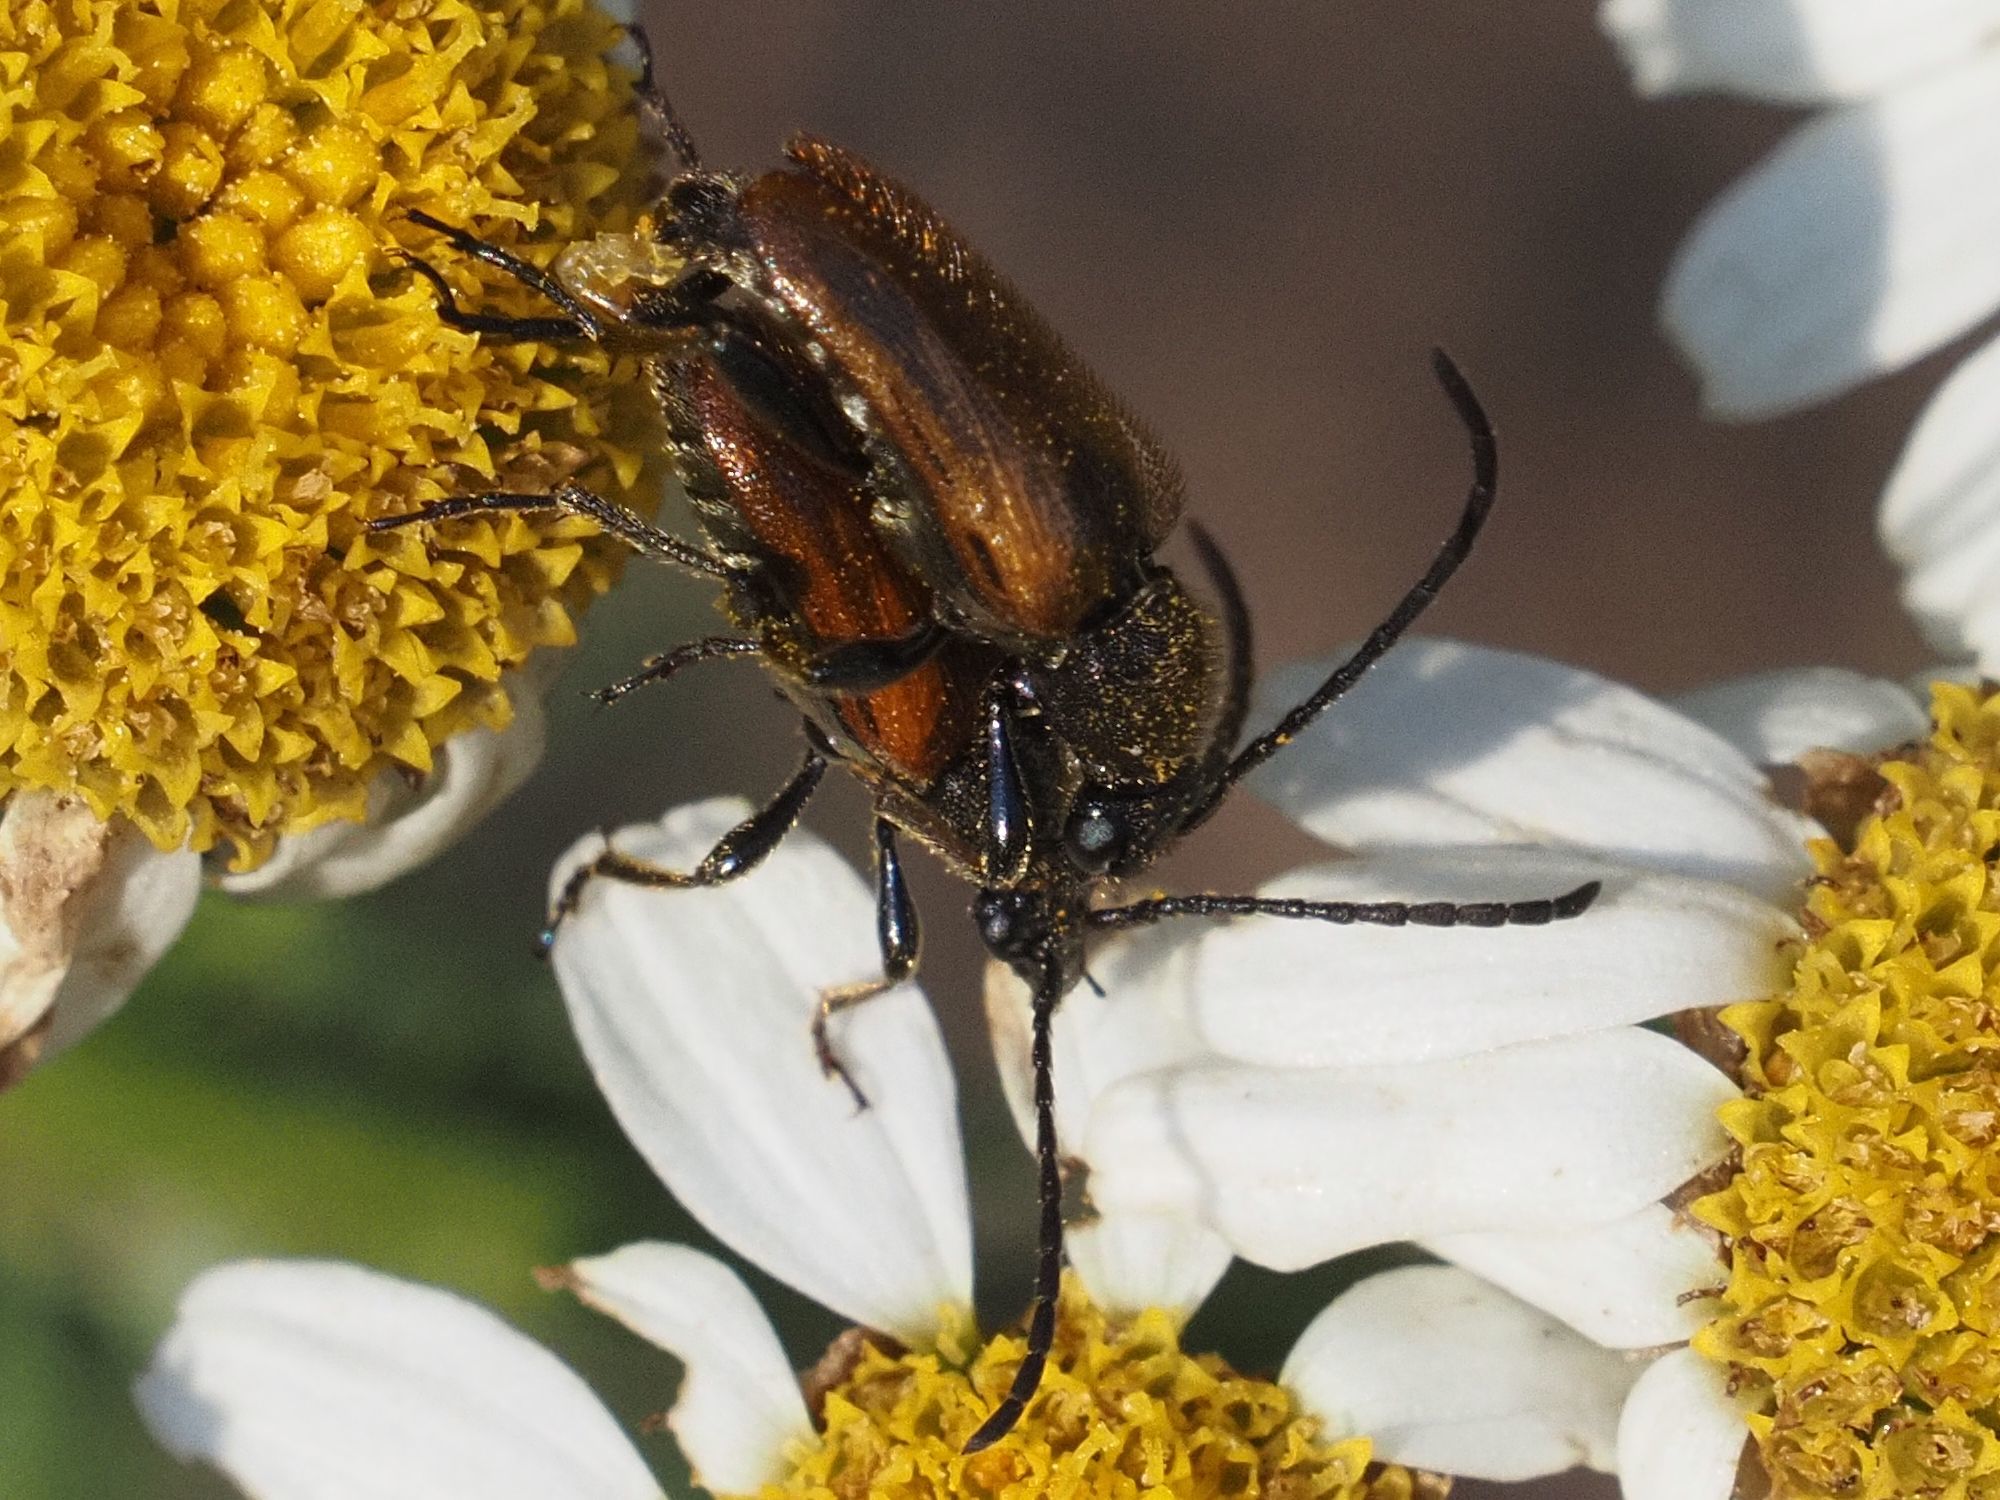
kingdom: Animalia
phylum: Arthropoda
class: Insecta
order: Coleoptera
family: Cerambycidae
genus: Pseudovadonia
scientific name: Pseudovadonia livida
